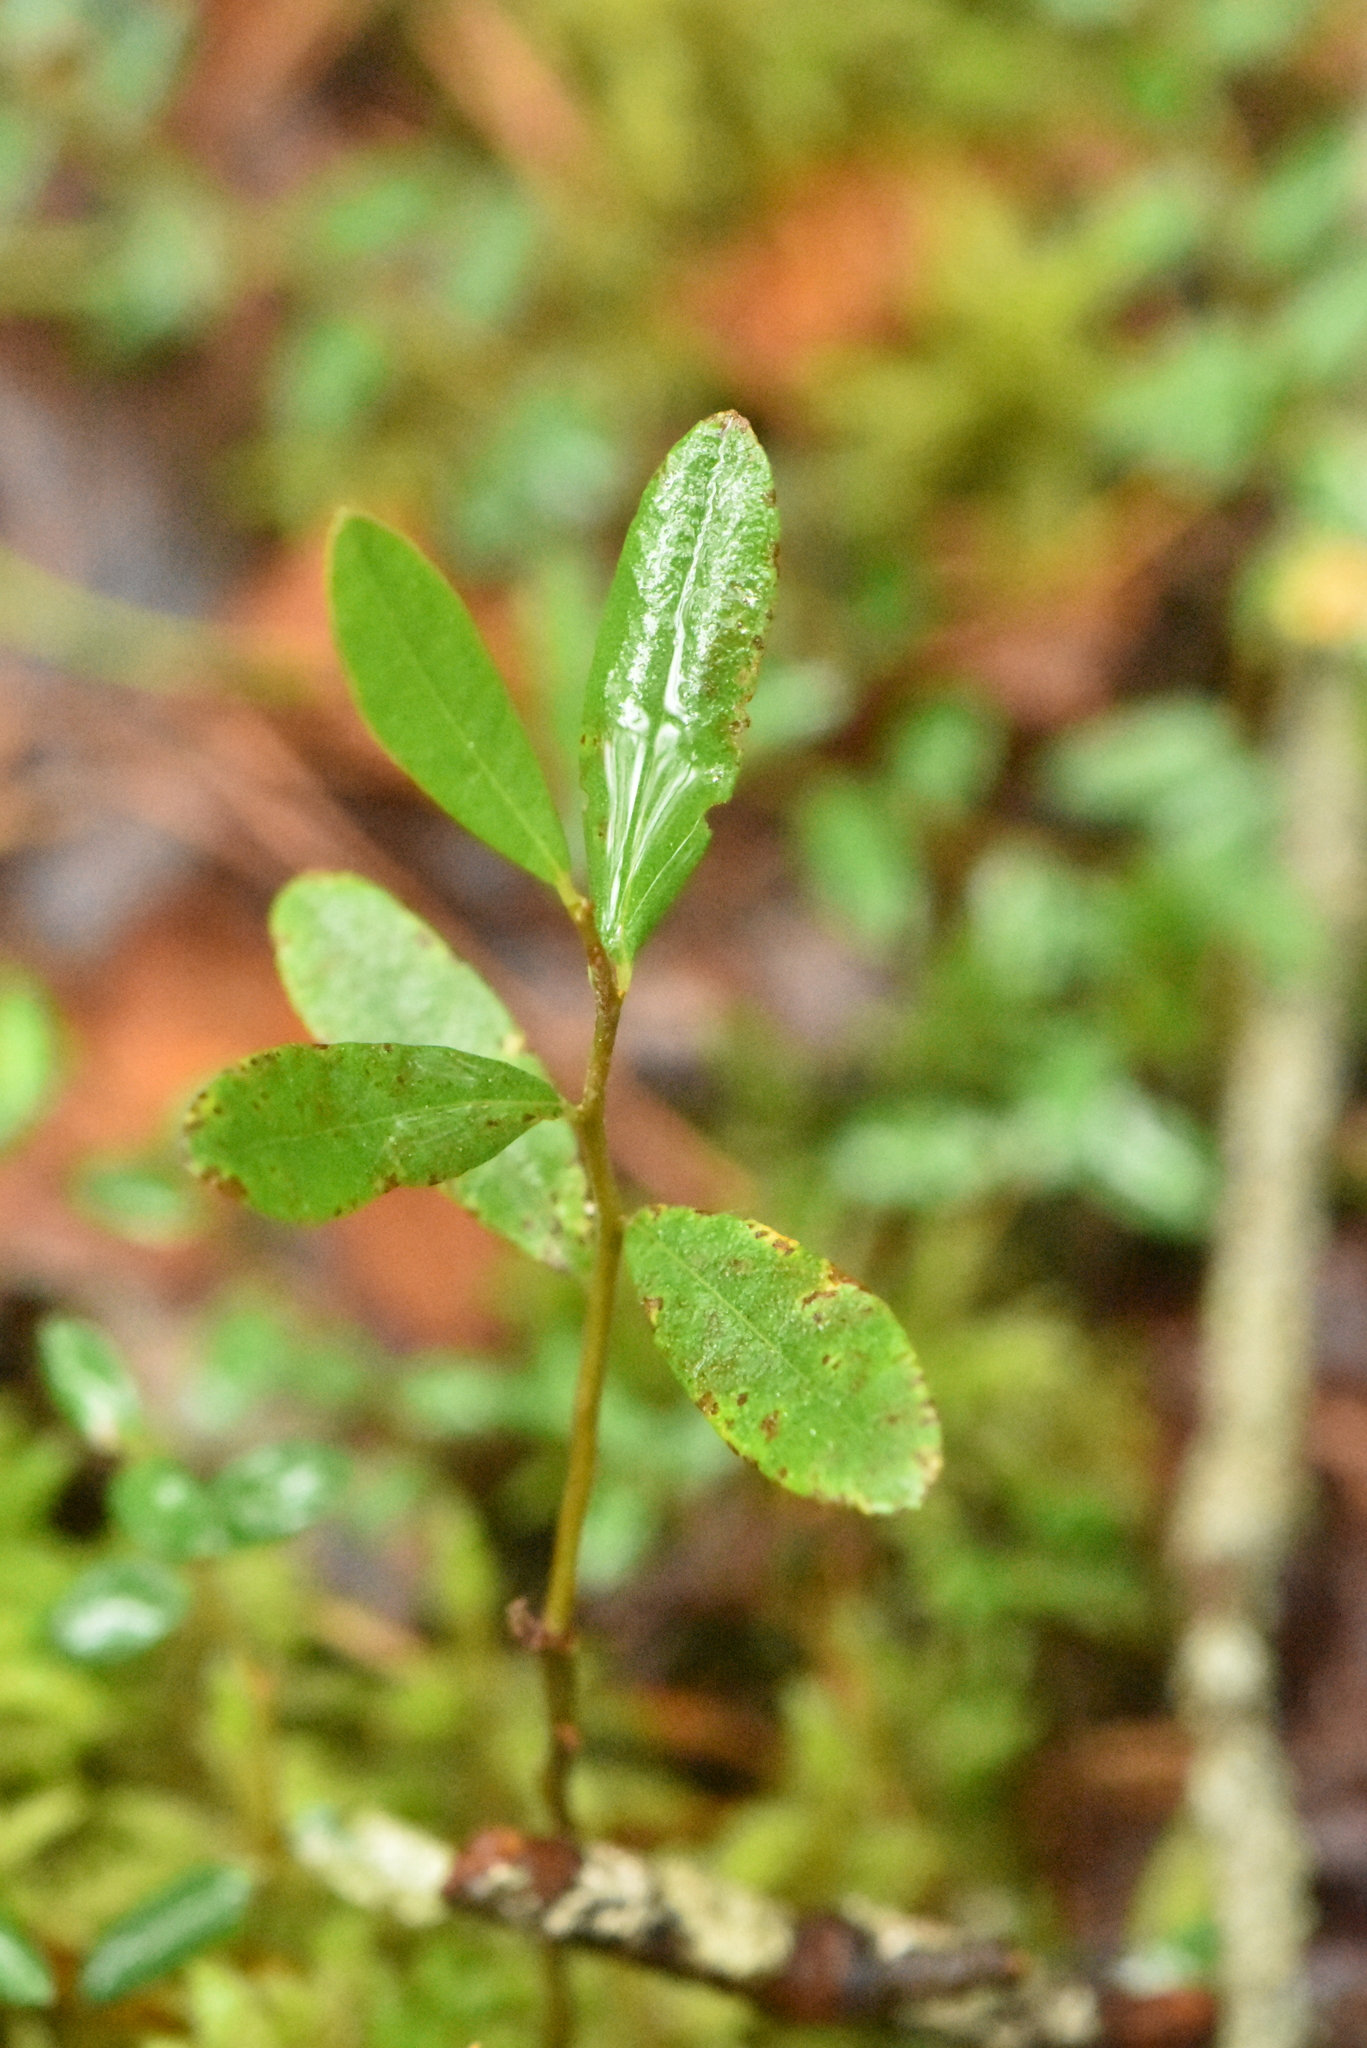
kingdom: Plantae
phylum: Tracheophyta
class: Magnoliopsida
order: Ericales
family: Ericaceae
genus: Chamaedaphne
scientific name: Chamaedaphne calyculata
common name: Leatherleaf
